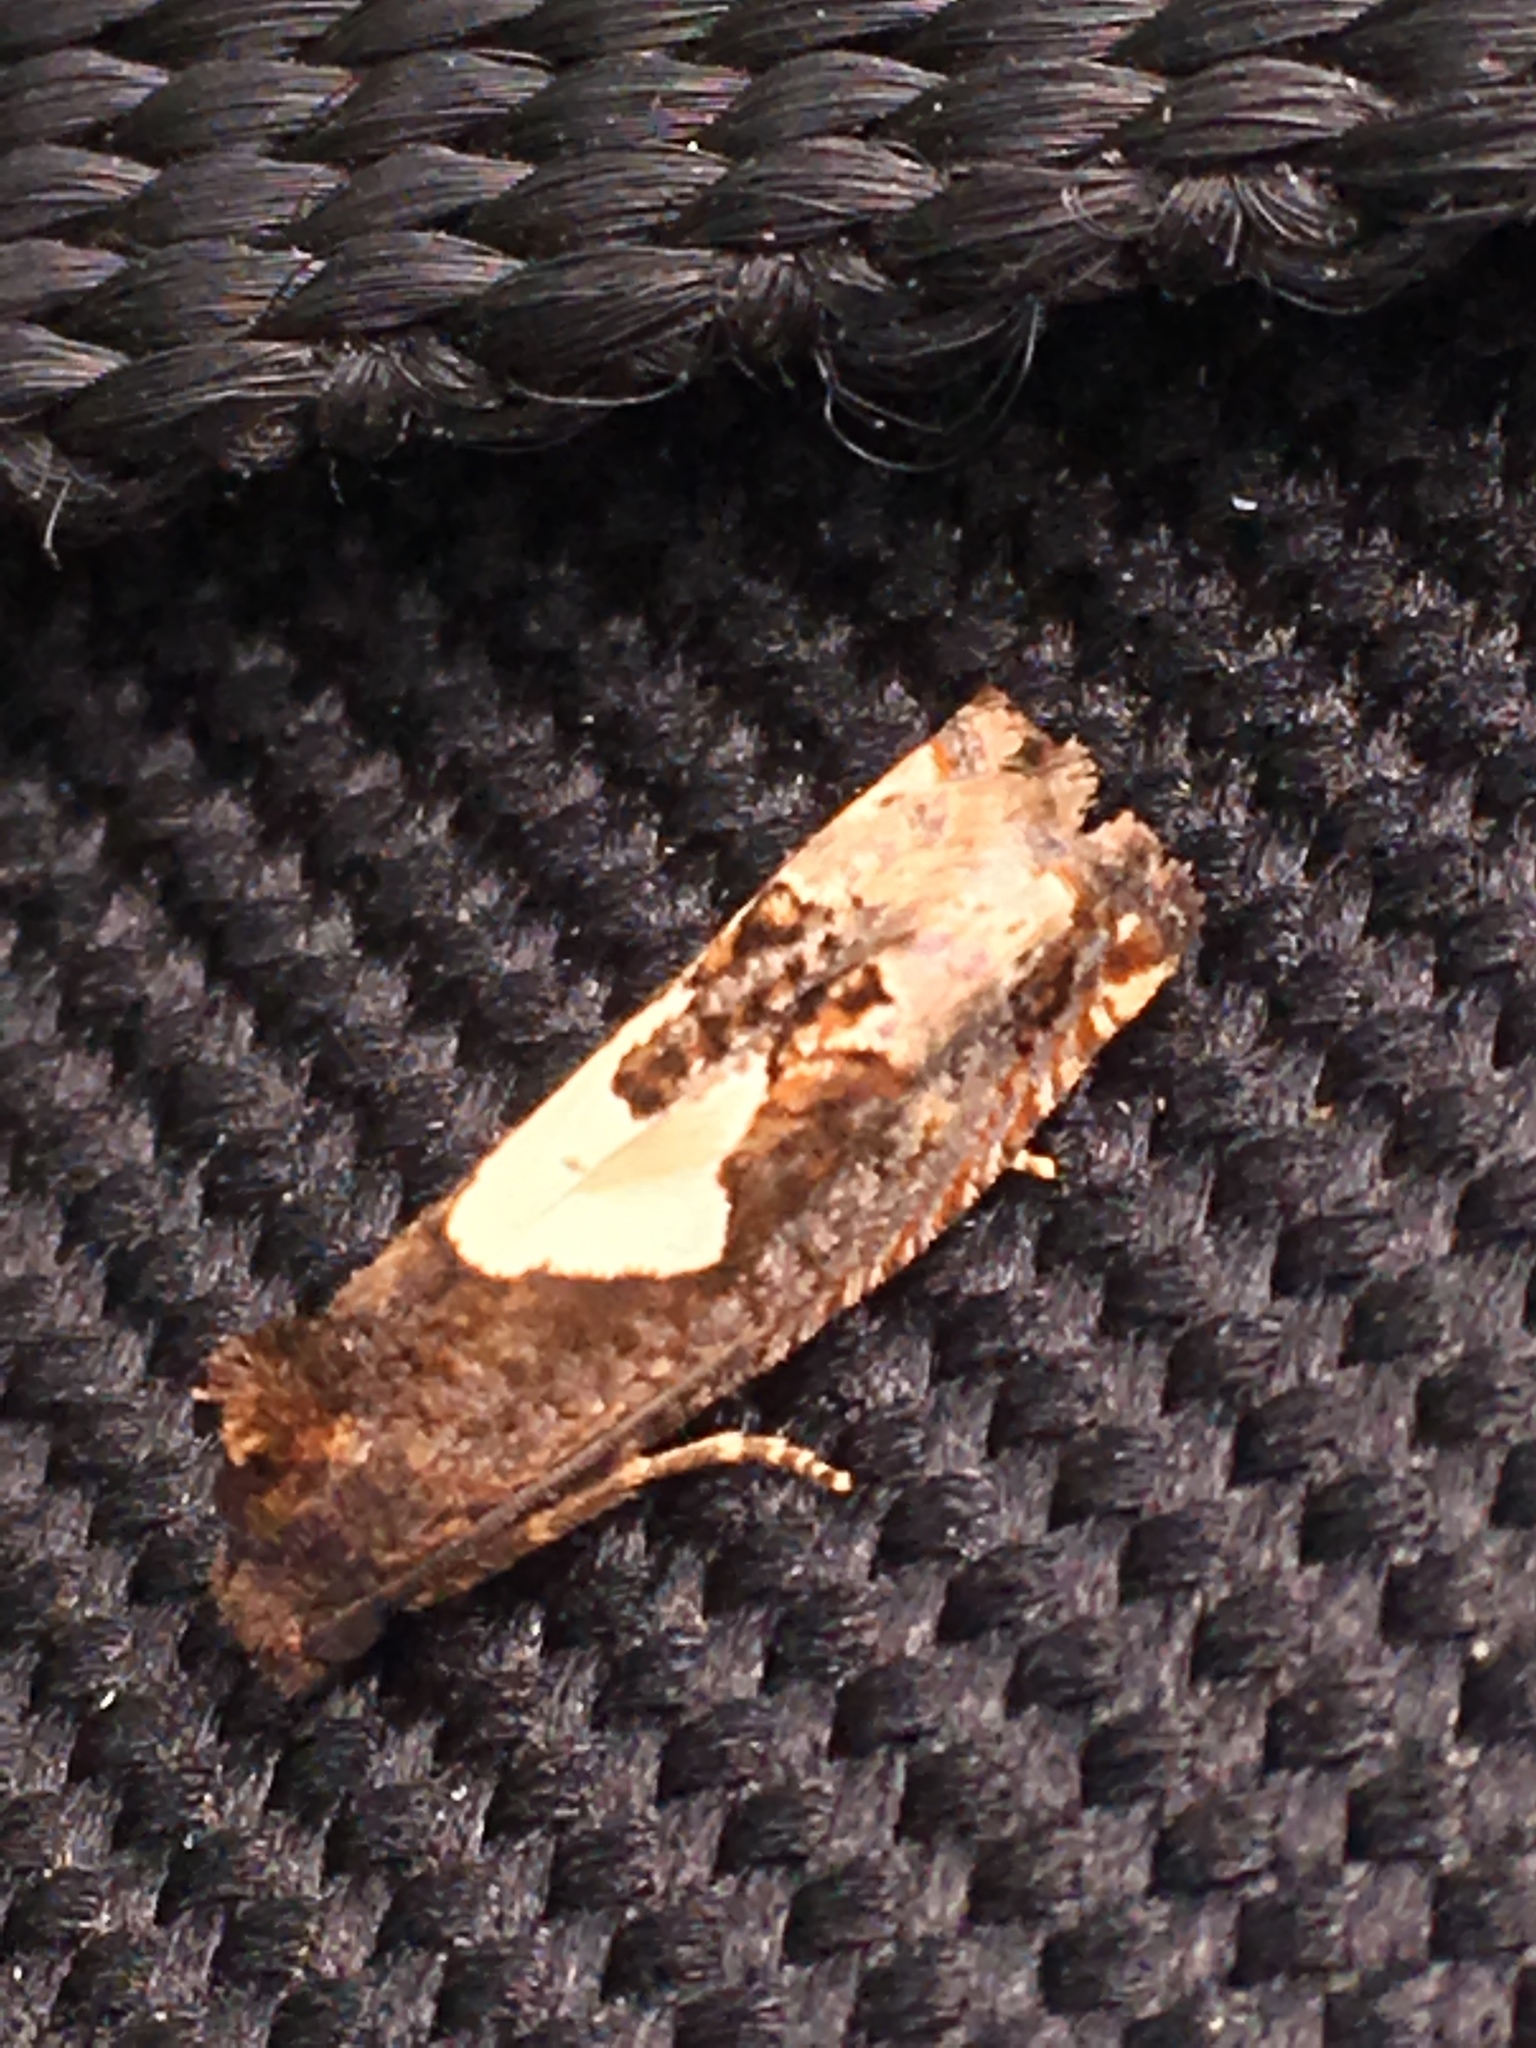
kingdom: Animalia
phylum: Arthropoda
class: Insecta
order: Lepidoptera
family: Tortricidae
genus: Epiblema
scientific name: Epiblema otiosana
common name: Bidens borer moth
